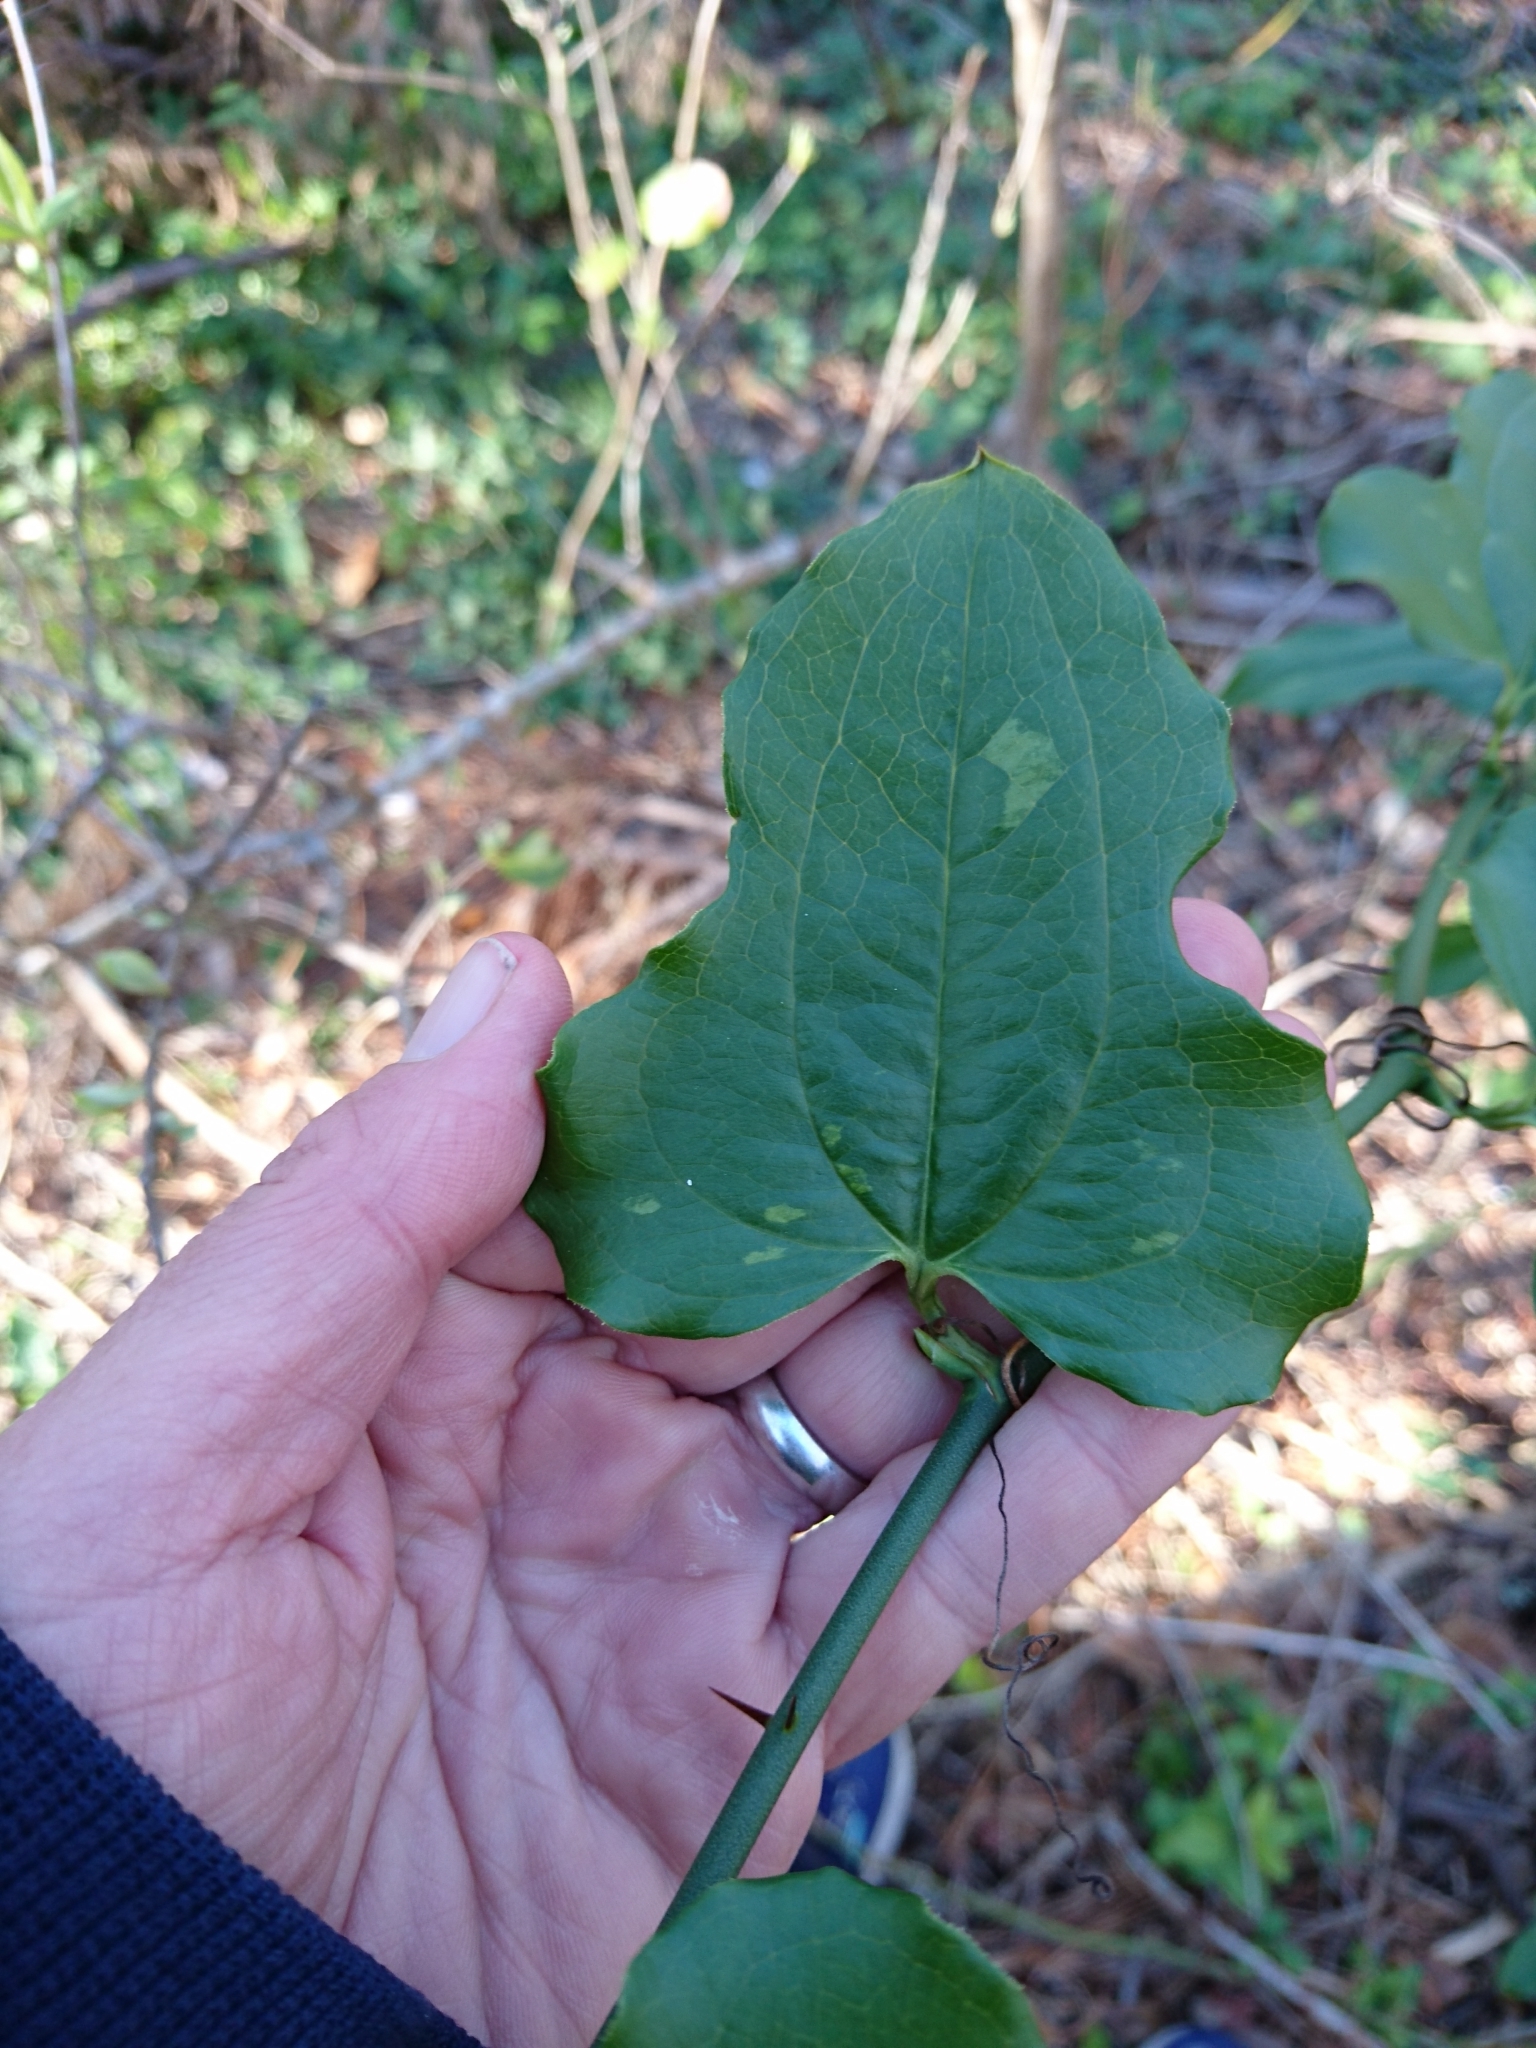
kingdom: Plantae
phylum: Tracheophyta
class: Liliopsida
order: Liliales
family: Smilacaceae
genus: Smilax
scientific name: Smilax tamnoides
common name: Hellfetter
